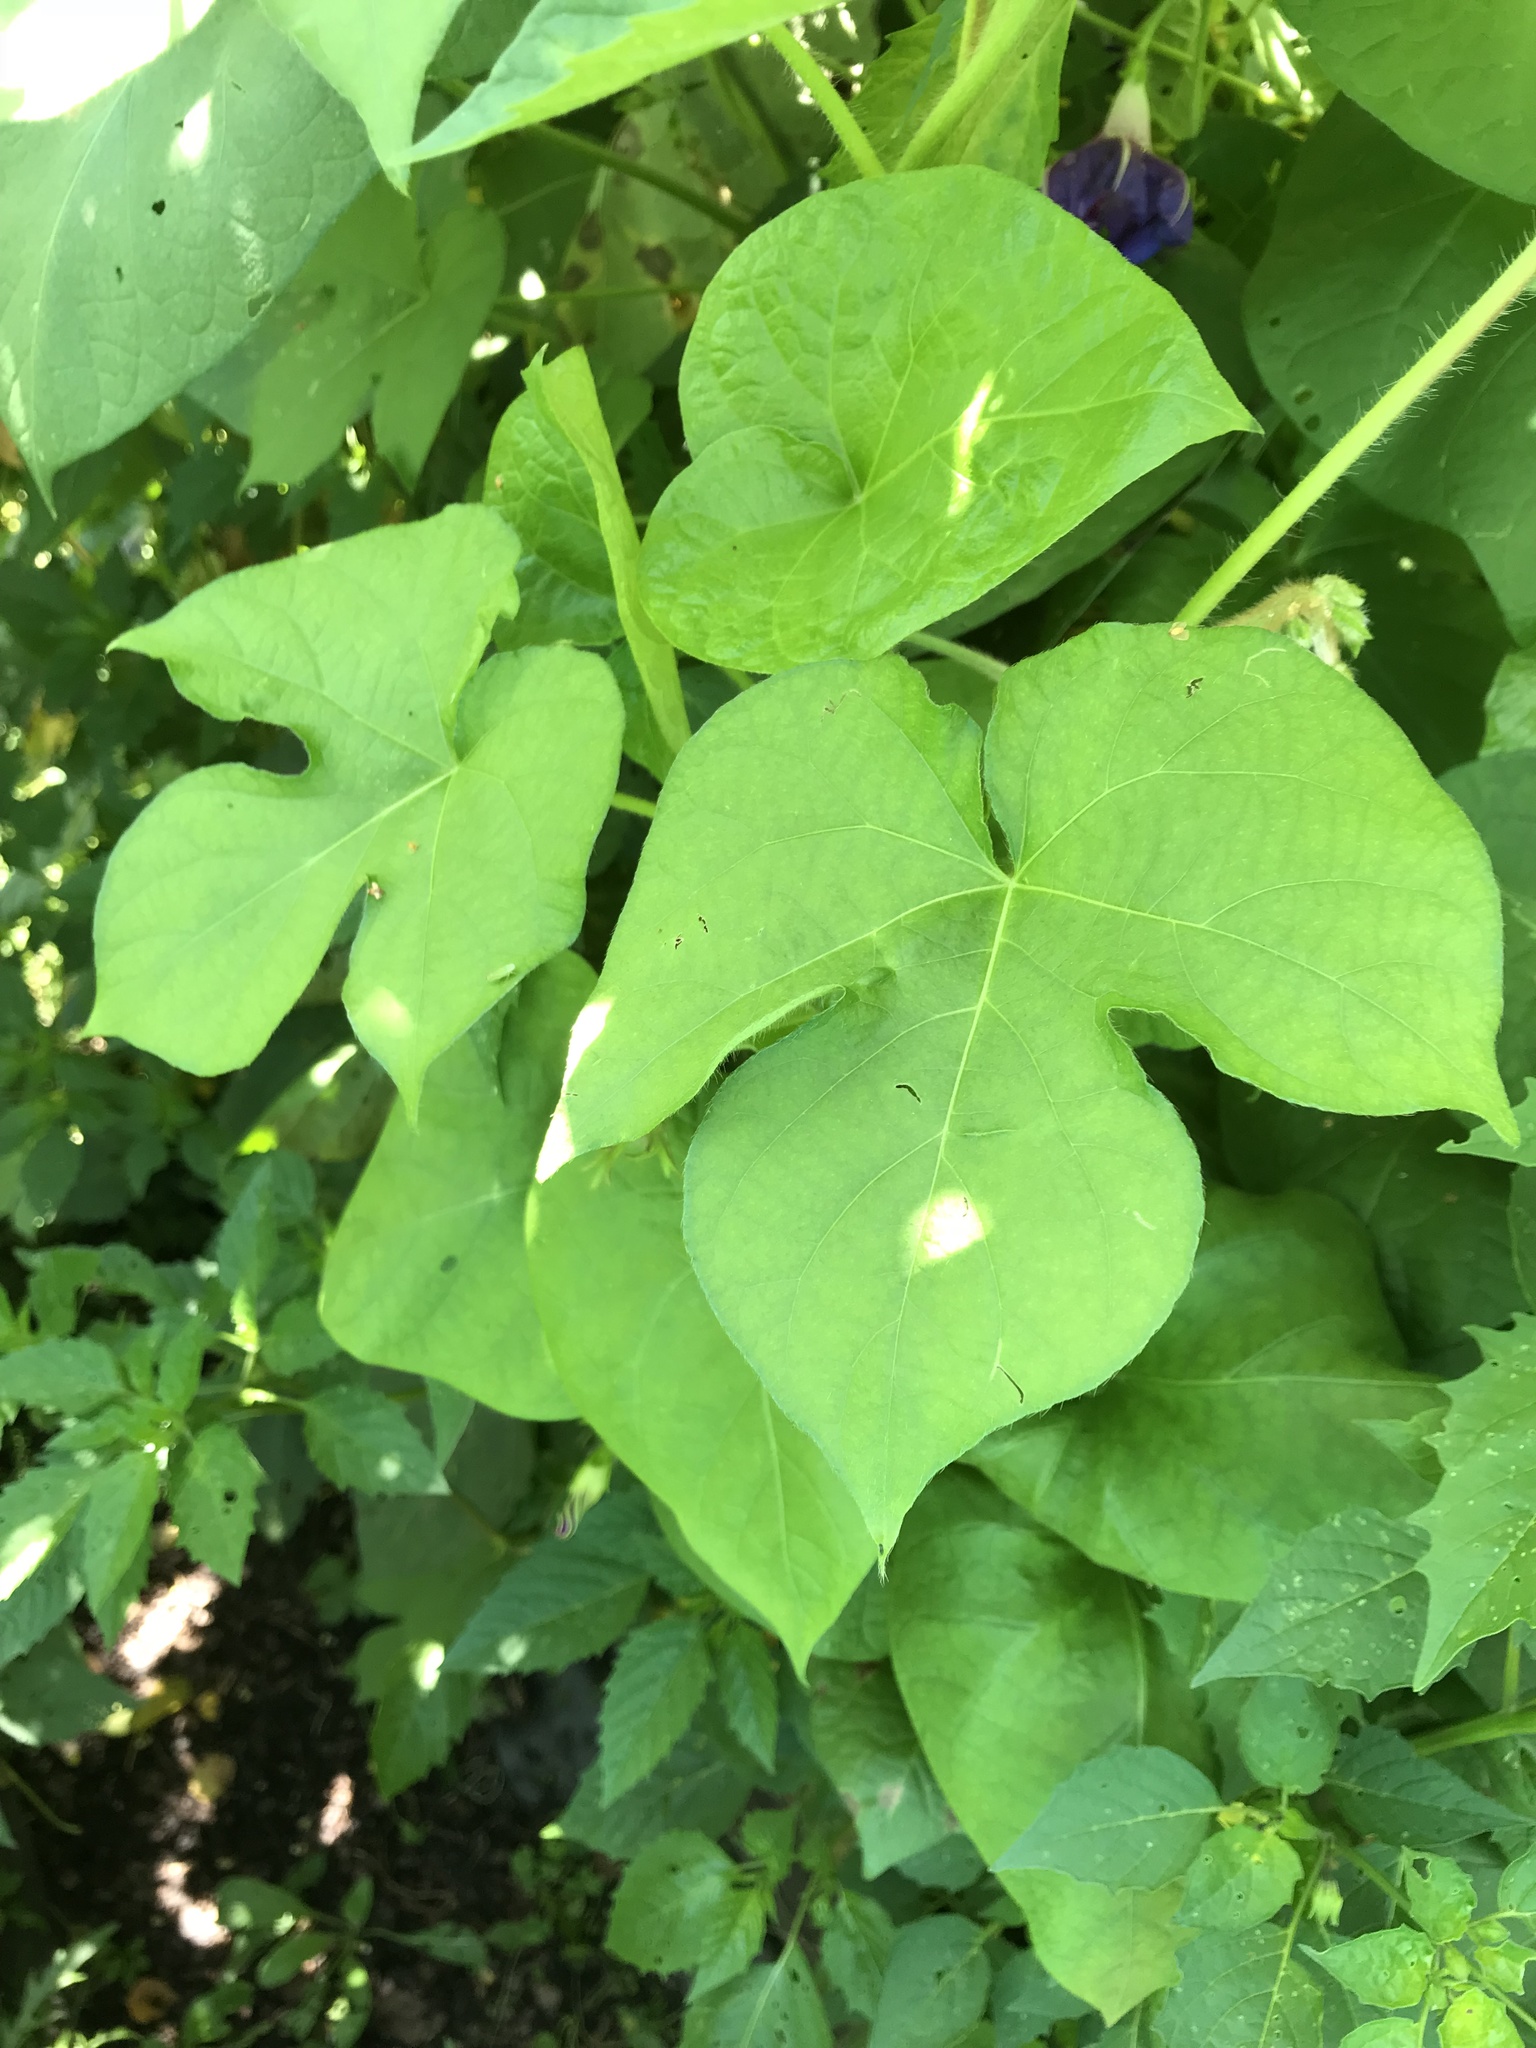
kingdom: Plantae
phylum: Tracheophyta
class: Magnoliopsida
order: Solanales
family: Convolvulaceae
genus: Ipomoea
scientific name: Ipomoea hederacea
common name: Ivy-leaved morning-glory
